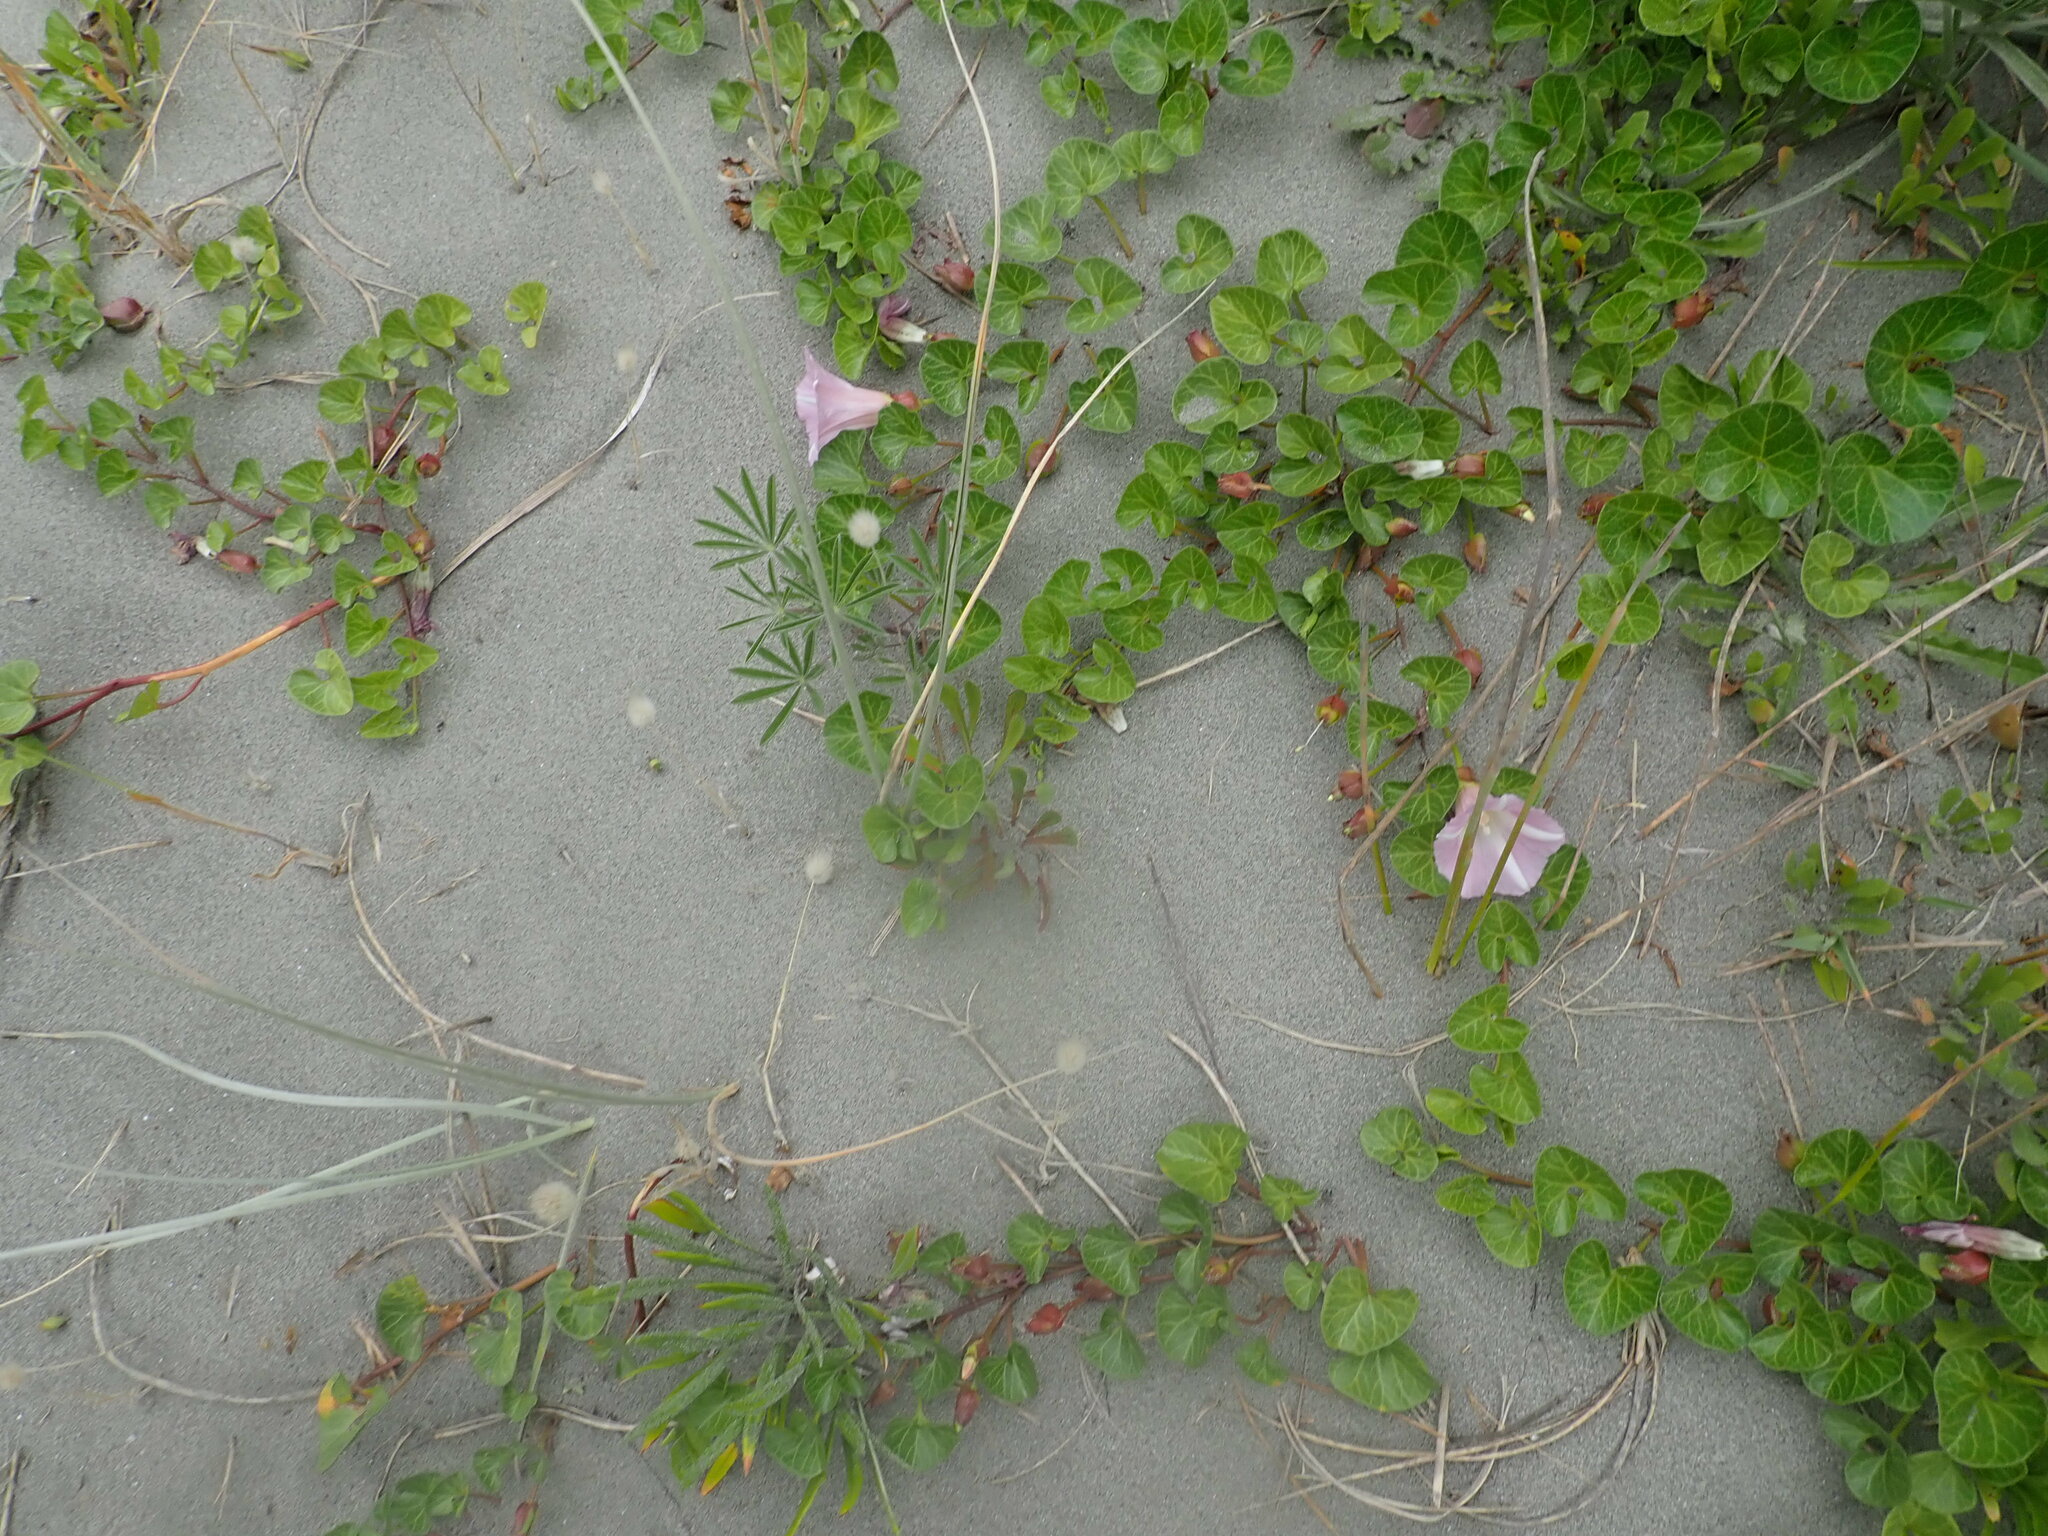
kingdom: Plantae
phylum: Tracheophyta
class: Magnoliopsida
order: Solanales
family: Convolvulaceae
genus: Calystegia
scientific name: Calystegia soldanella
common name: Sea bindweed
